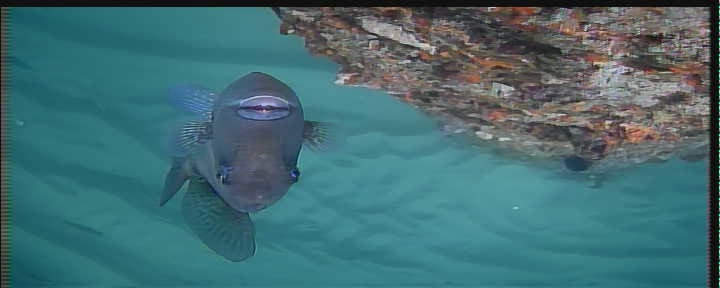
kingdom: Animalia
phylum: Chordata
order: Tetraodontiformes
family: Balistidae
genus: Balistes
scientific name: Balistes capriscus
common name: Grey triggerfish
